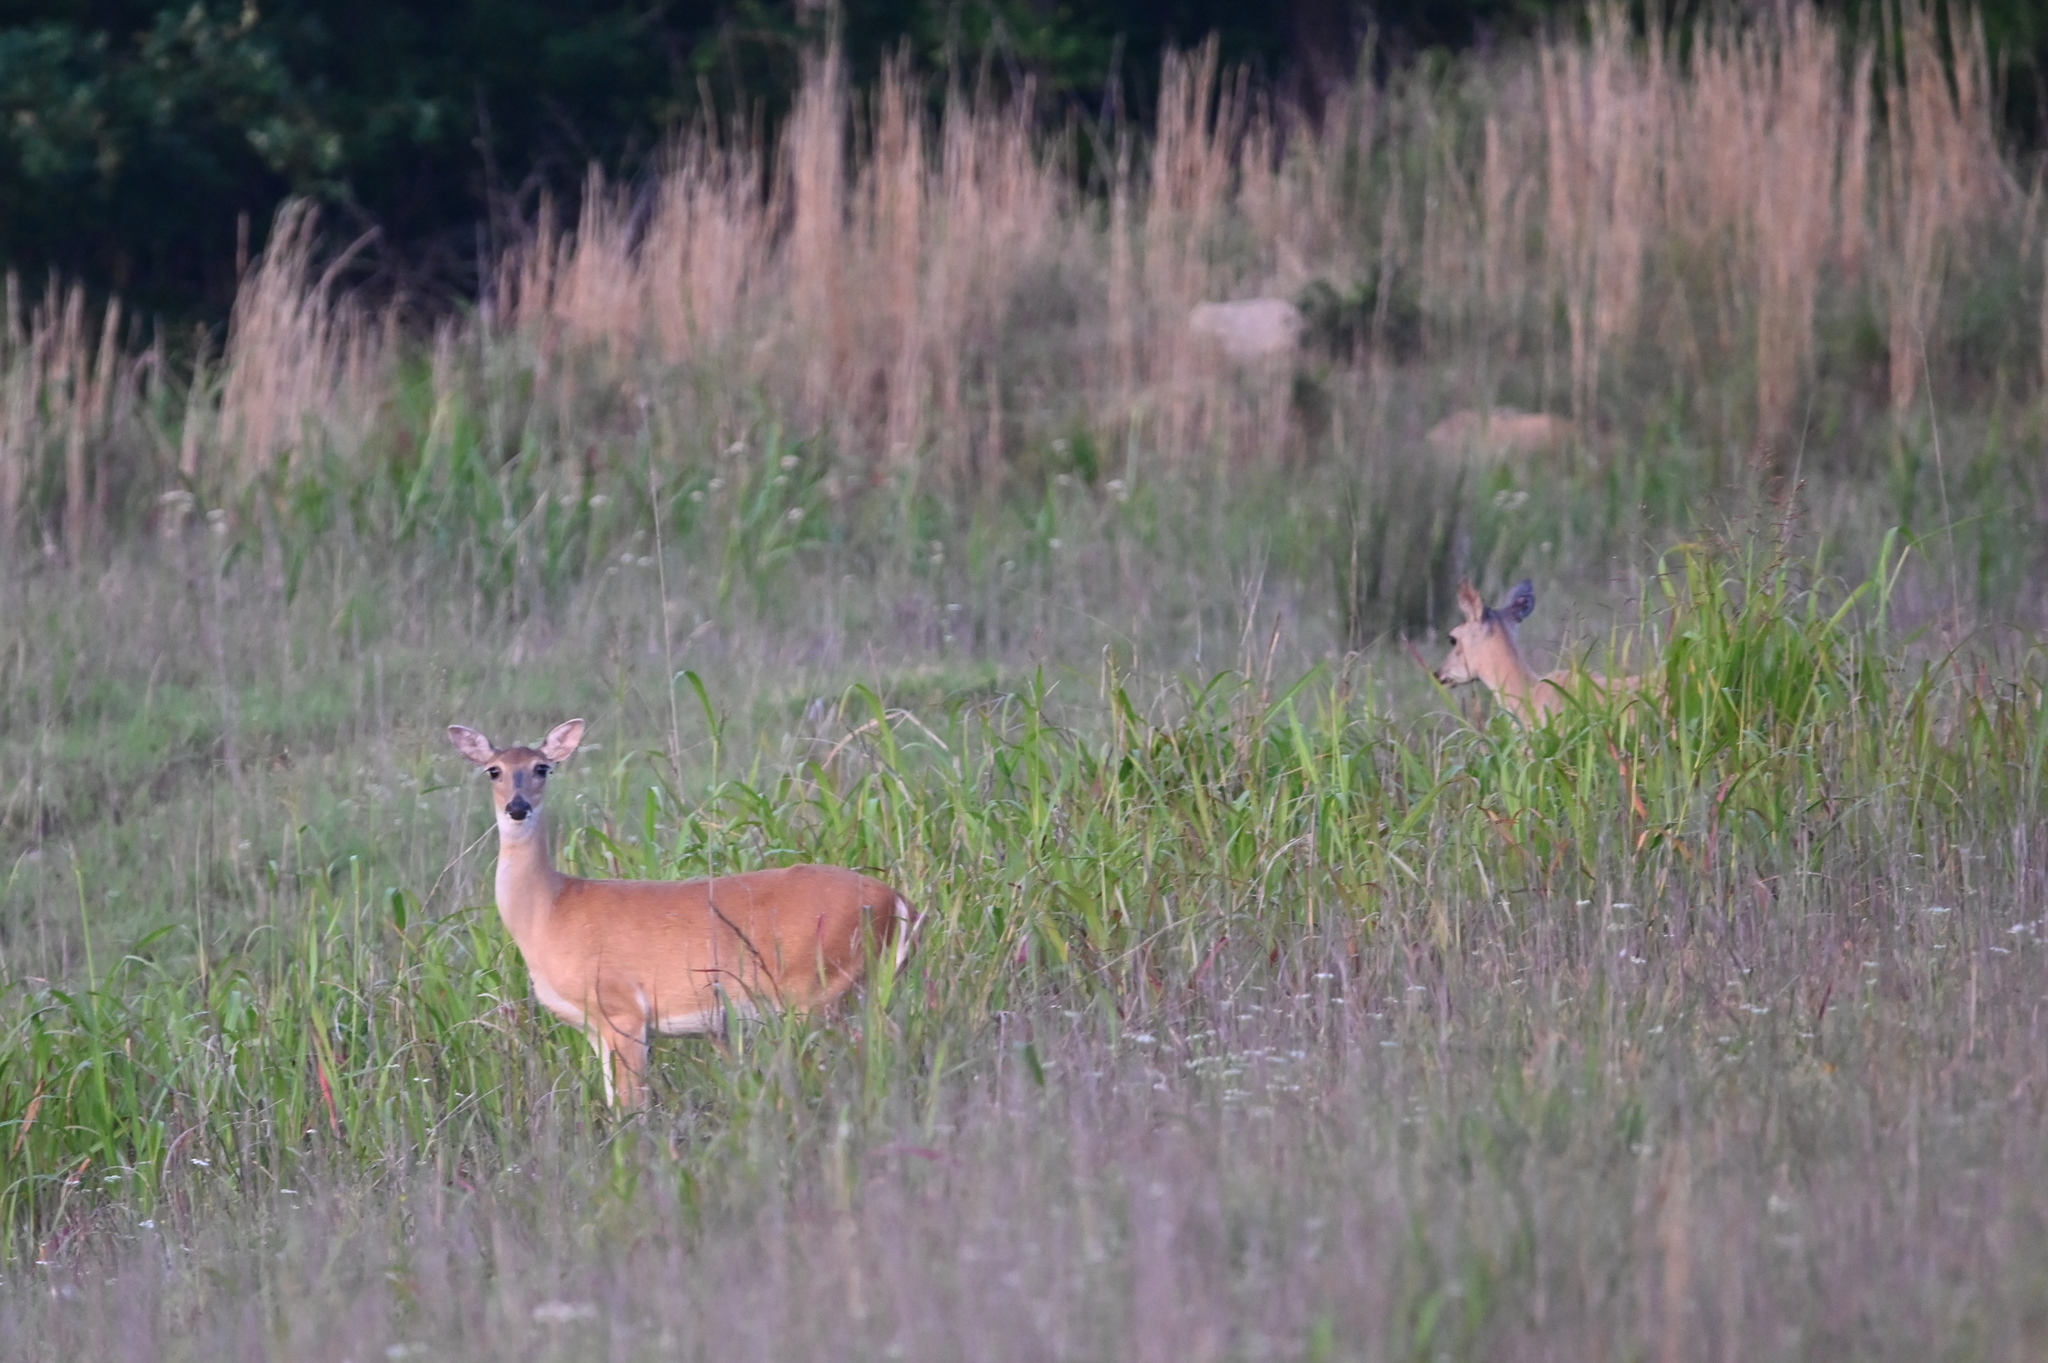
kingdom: Animalia
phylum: Chordata
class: Mammalia
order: Artiodactyla
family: Cervidae
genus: Odocoileus
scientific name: Odocoileus virginianus
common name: White-tailed deer
